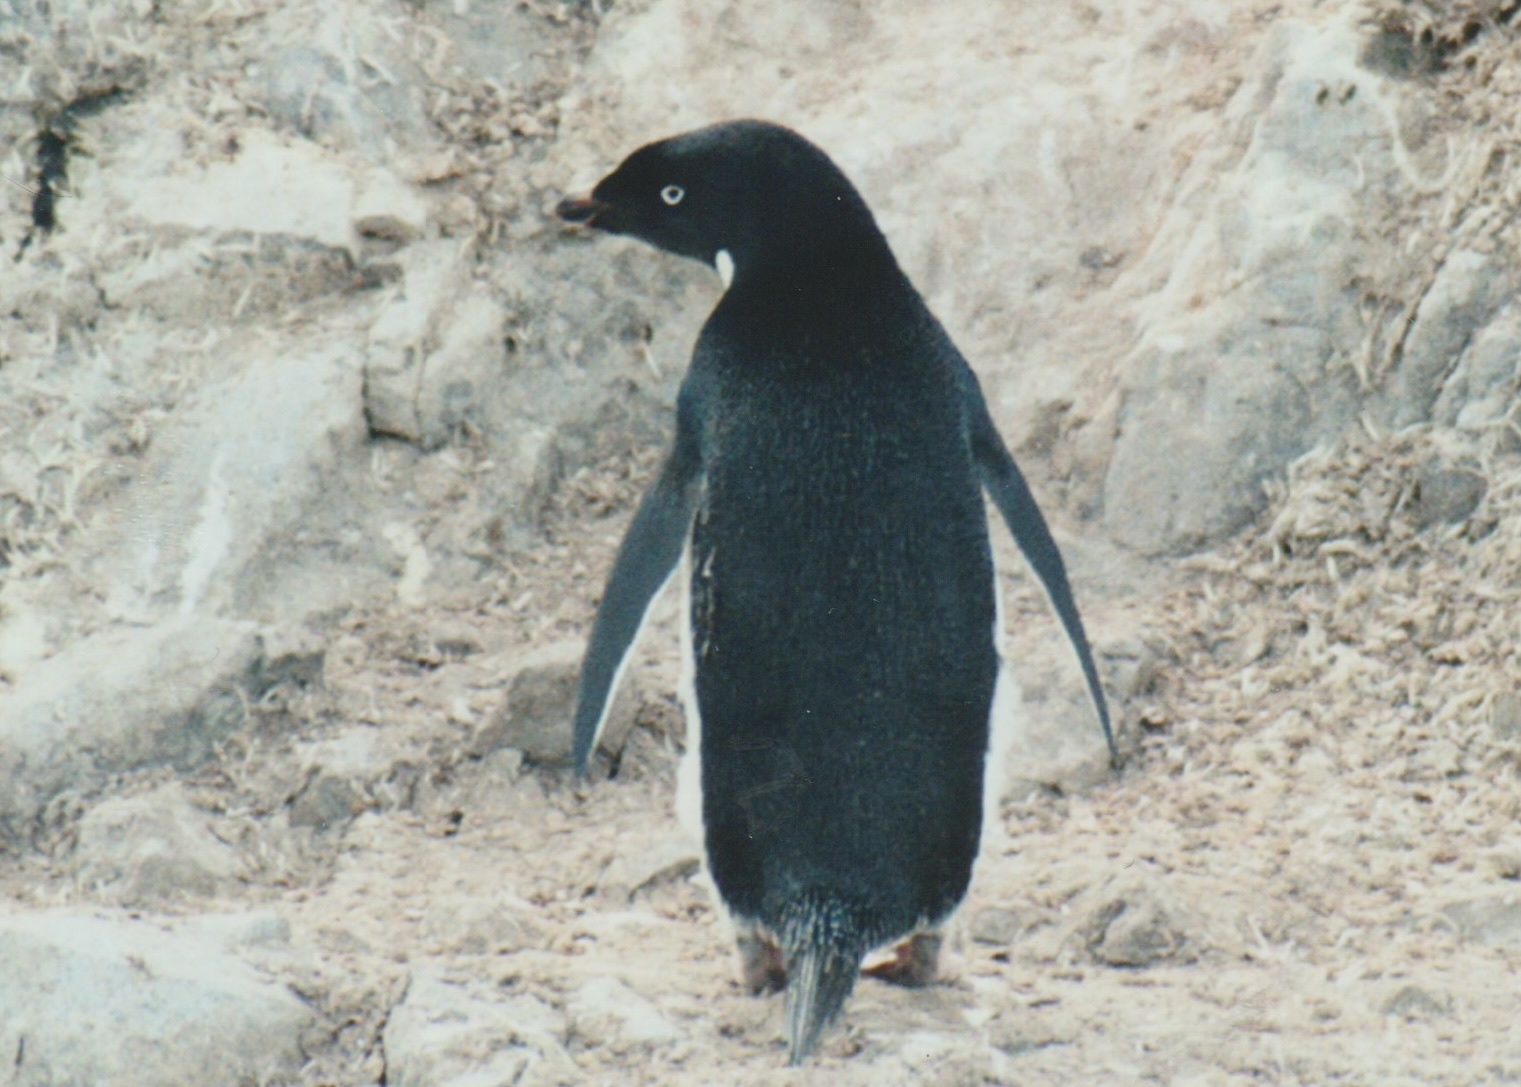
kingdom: Animalia
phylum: Chordata
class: Aves
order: Sphenisciformes
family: Spheniscidae
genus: Pygoscelis
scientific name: Pygoscelis adeliae
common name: Adelie penguin
